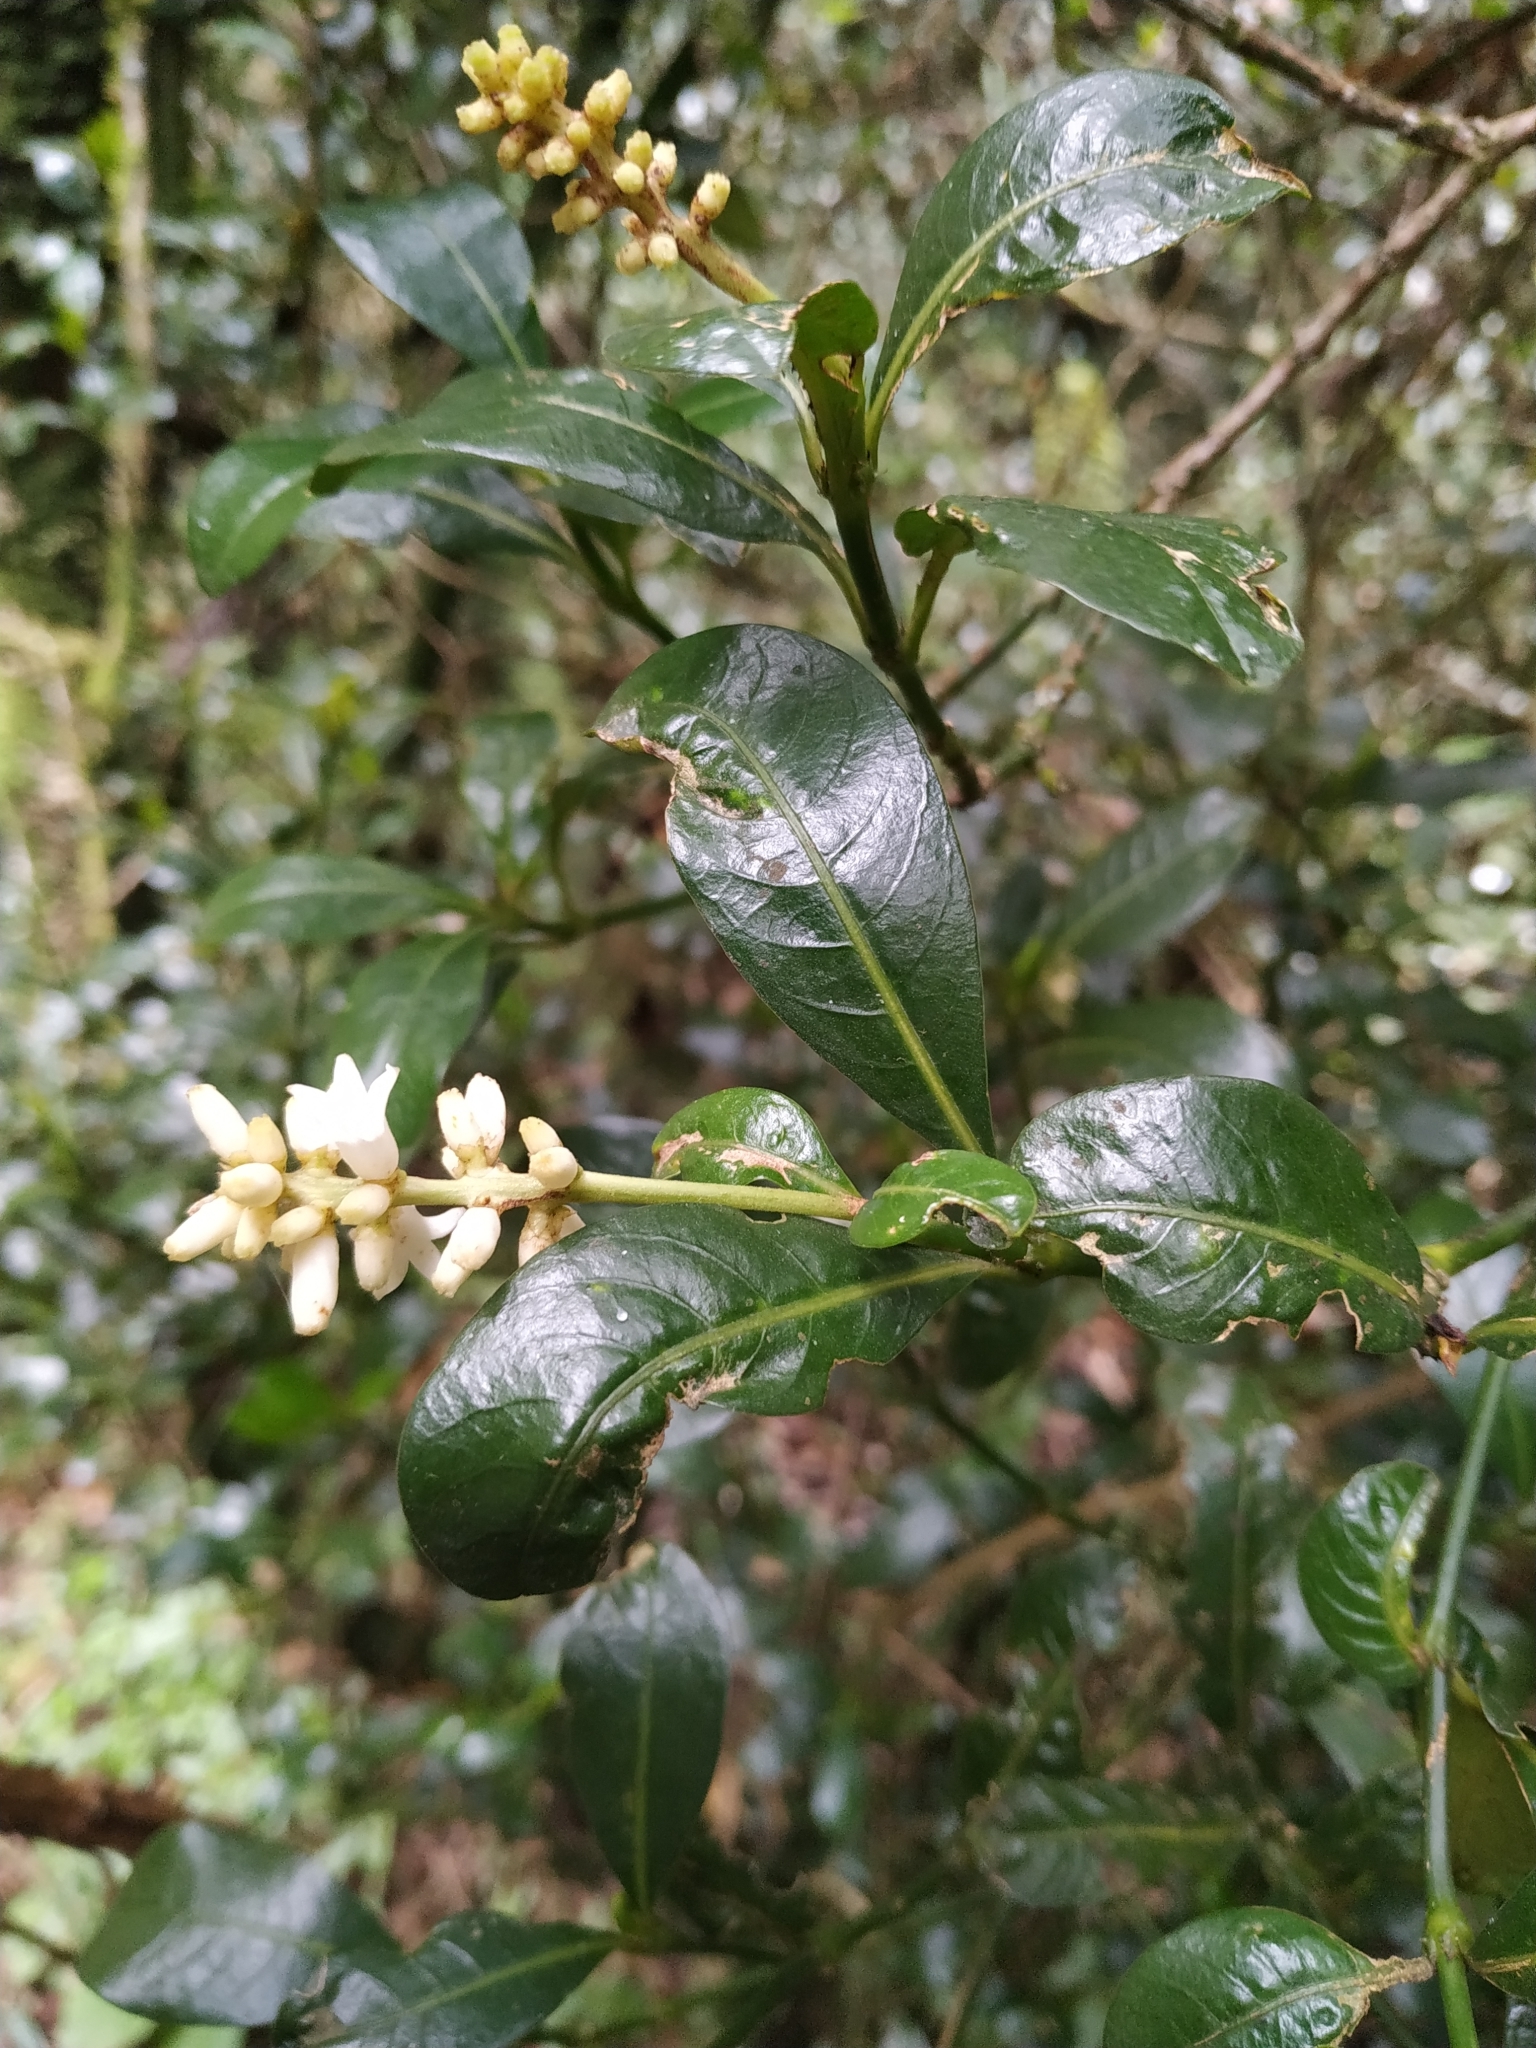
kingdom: Plantae
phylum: Tracheophyta
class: Magnoliopsida
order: Gentianales
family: Rubiaceae
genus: Palicourea
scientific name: Palicourea boqueronensis
